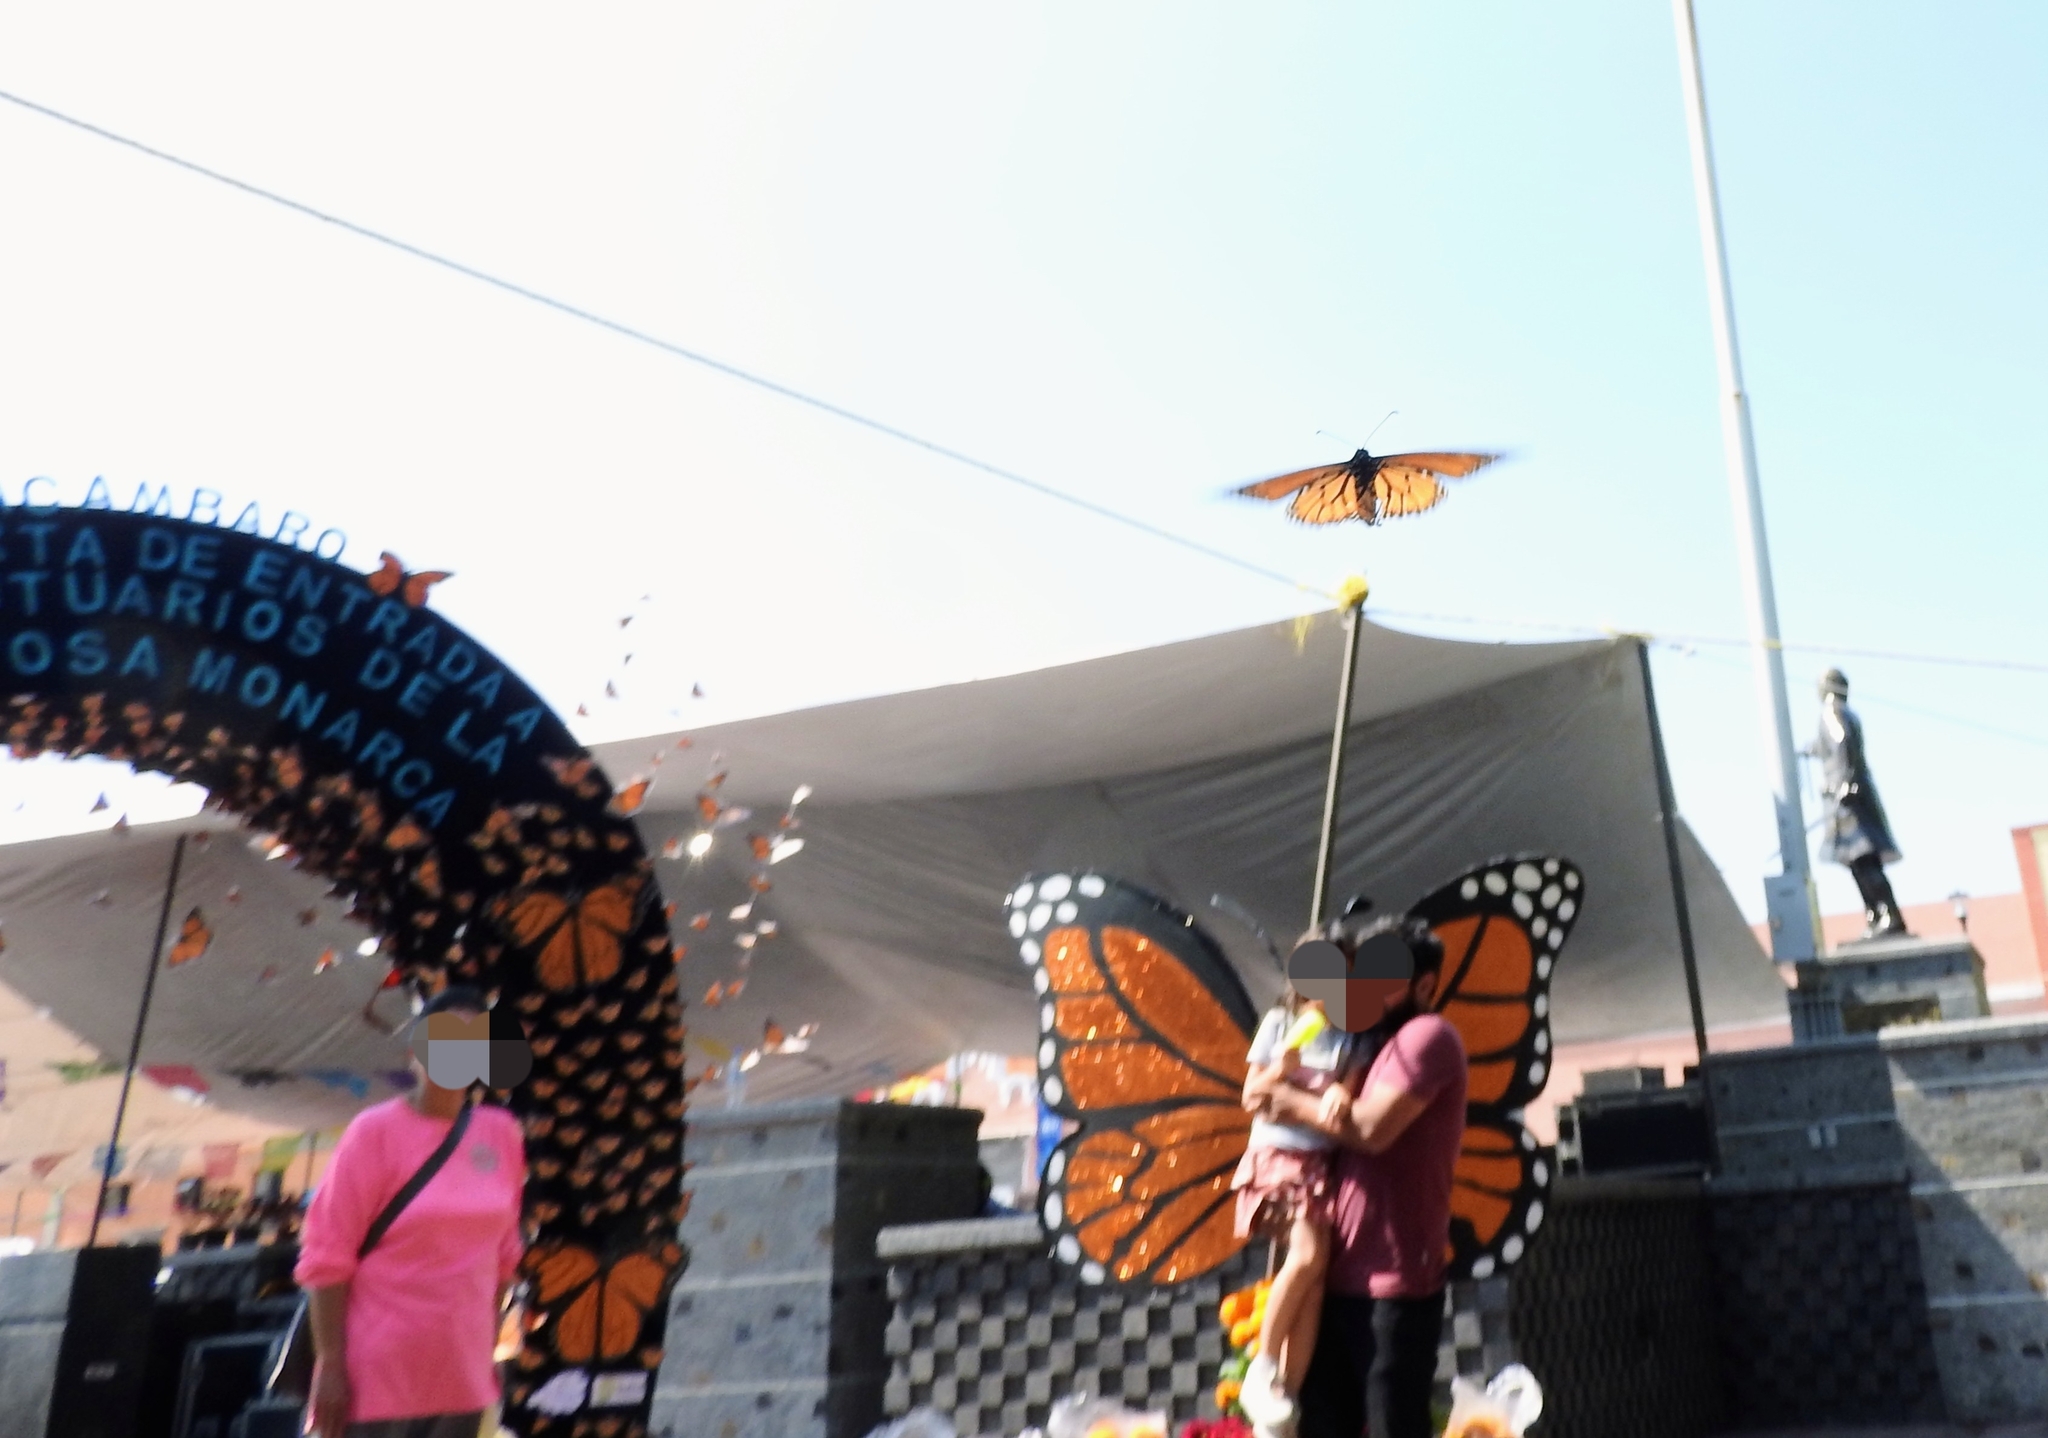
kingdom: Animalia
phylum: Arthropoda
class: Insecta
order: Lepidoptera
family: Nymphalidae
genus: Danaus
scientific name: Danaus plexippus
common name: Monarch
